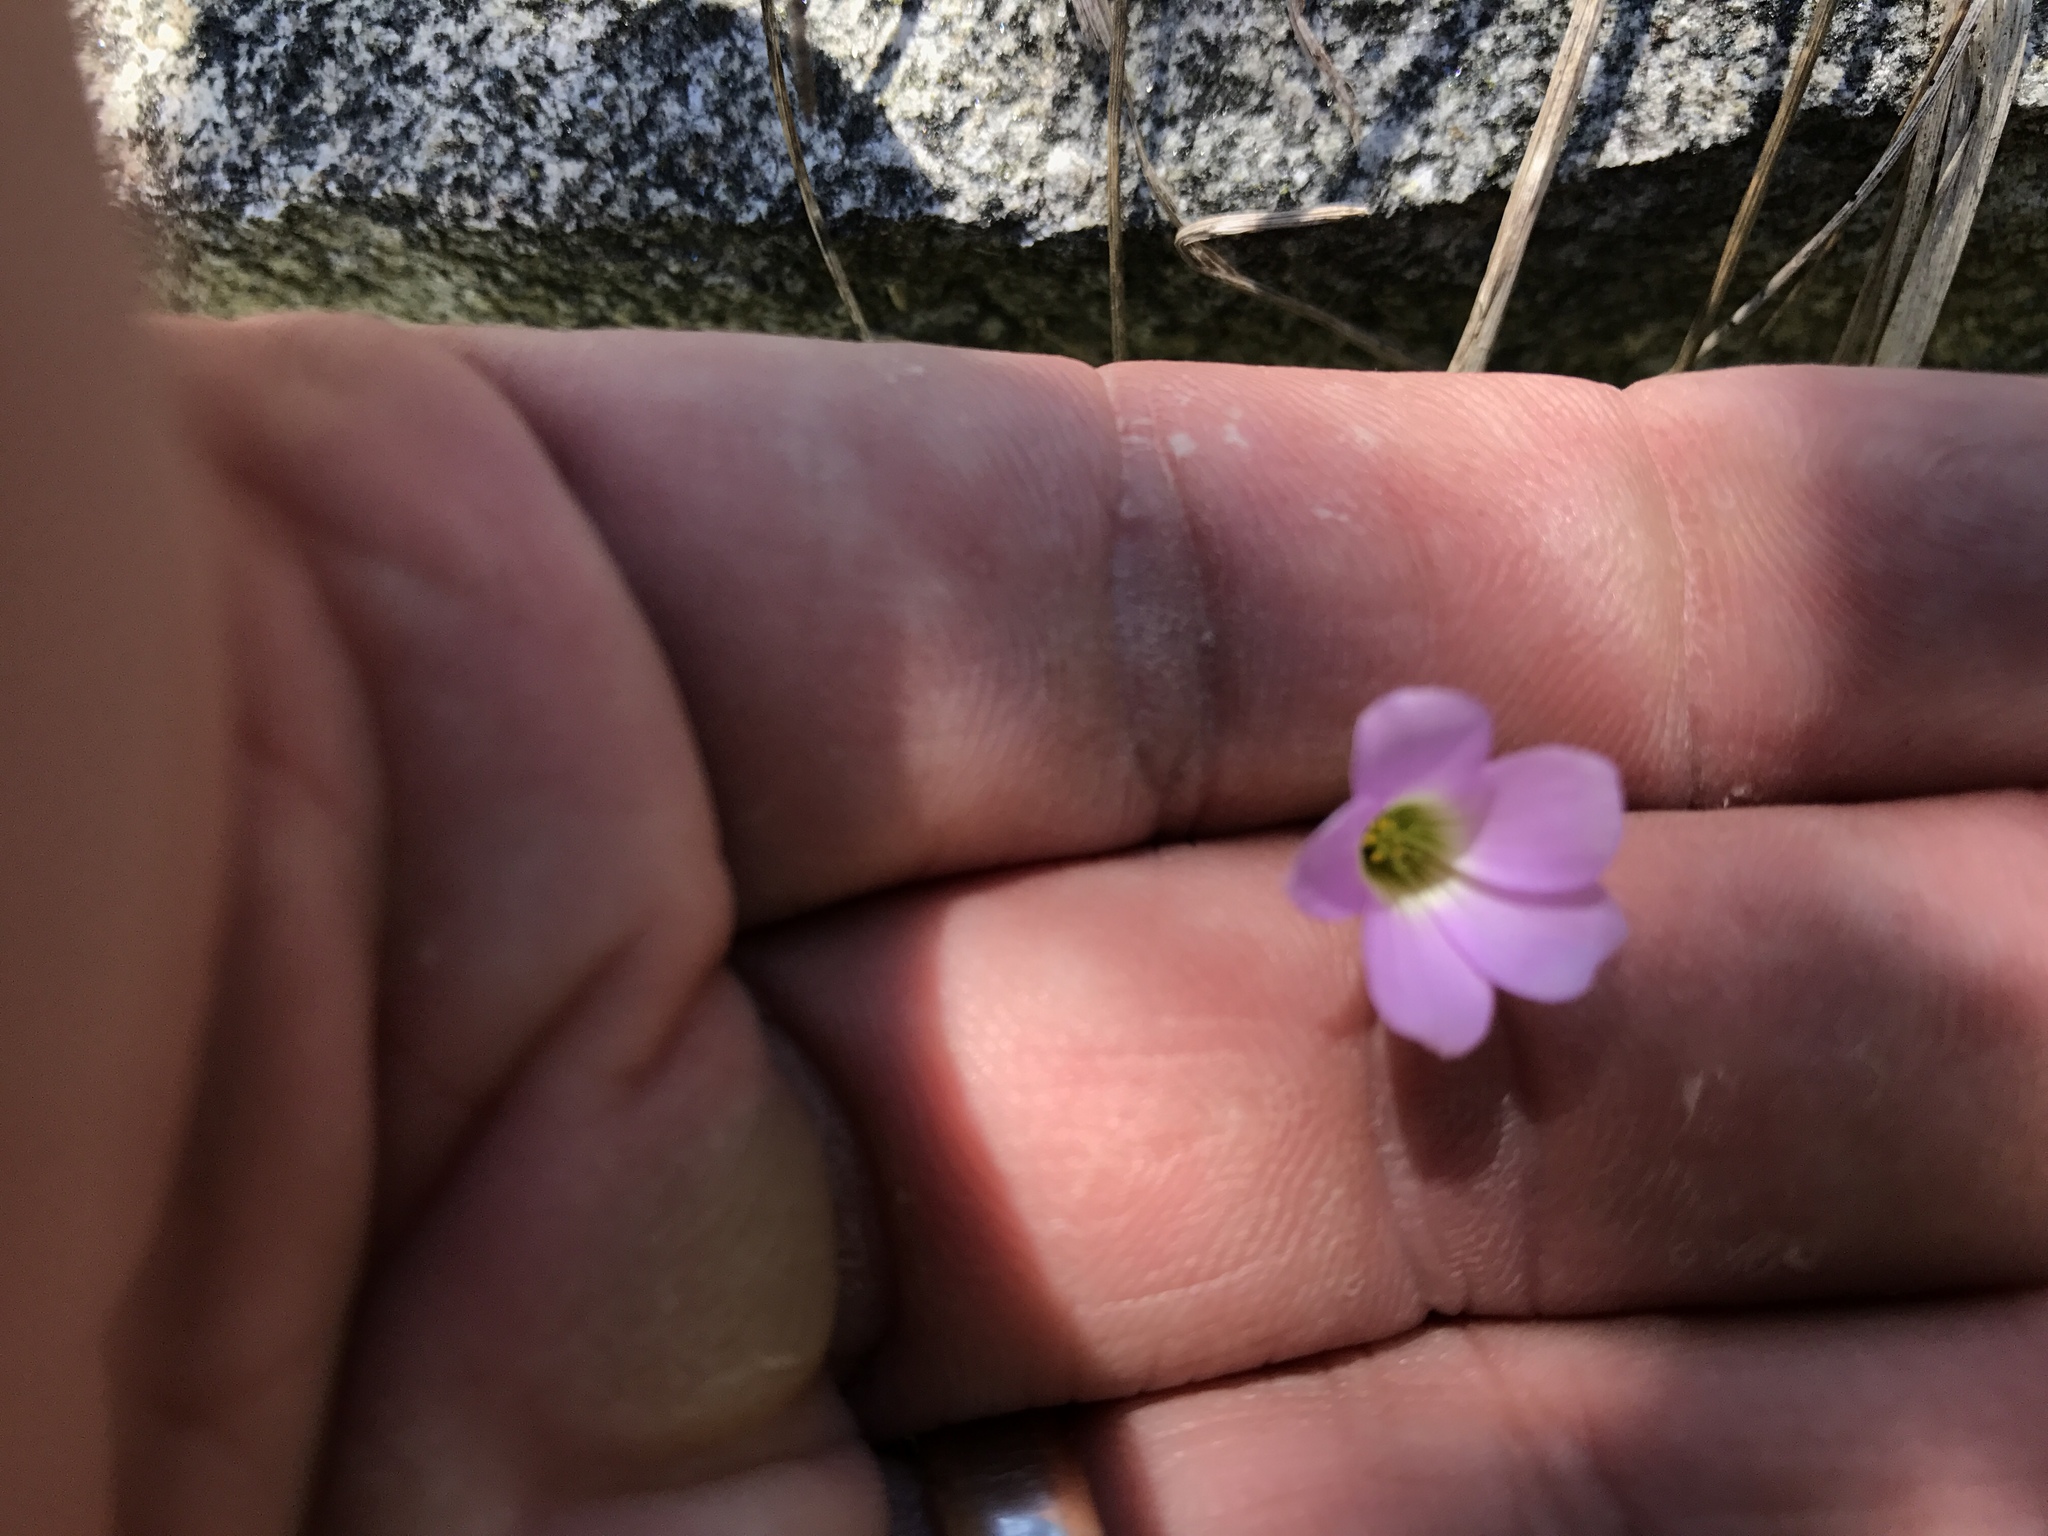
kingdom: Plantae
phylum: Tracheophyta
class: Magnoliopsida
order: Oxalidales
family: Oxalidaceae
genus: Oxalis
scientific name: Oxalis alpina
